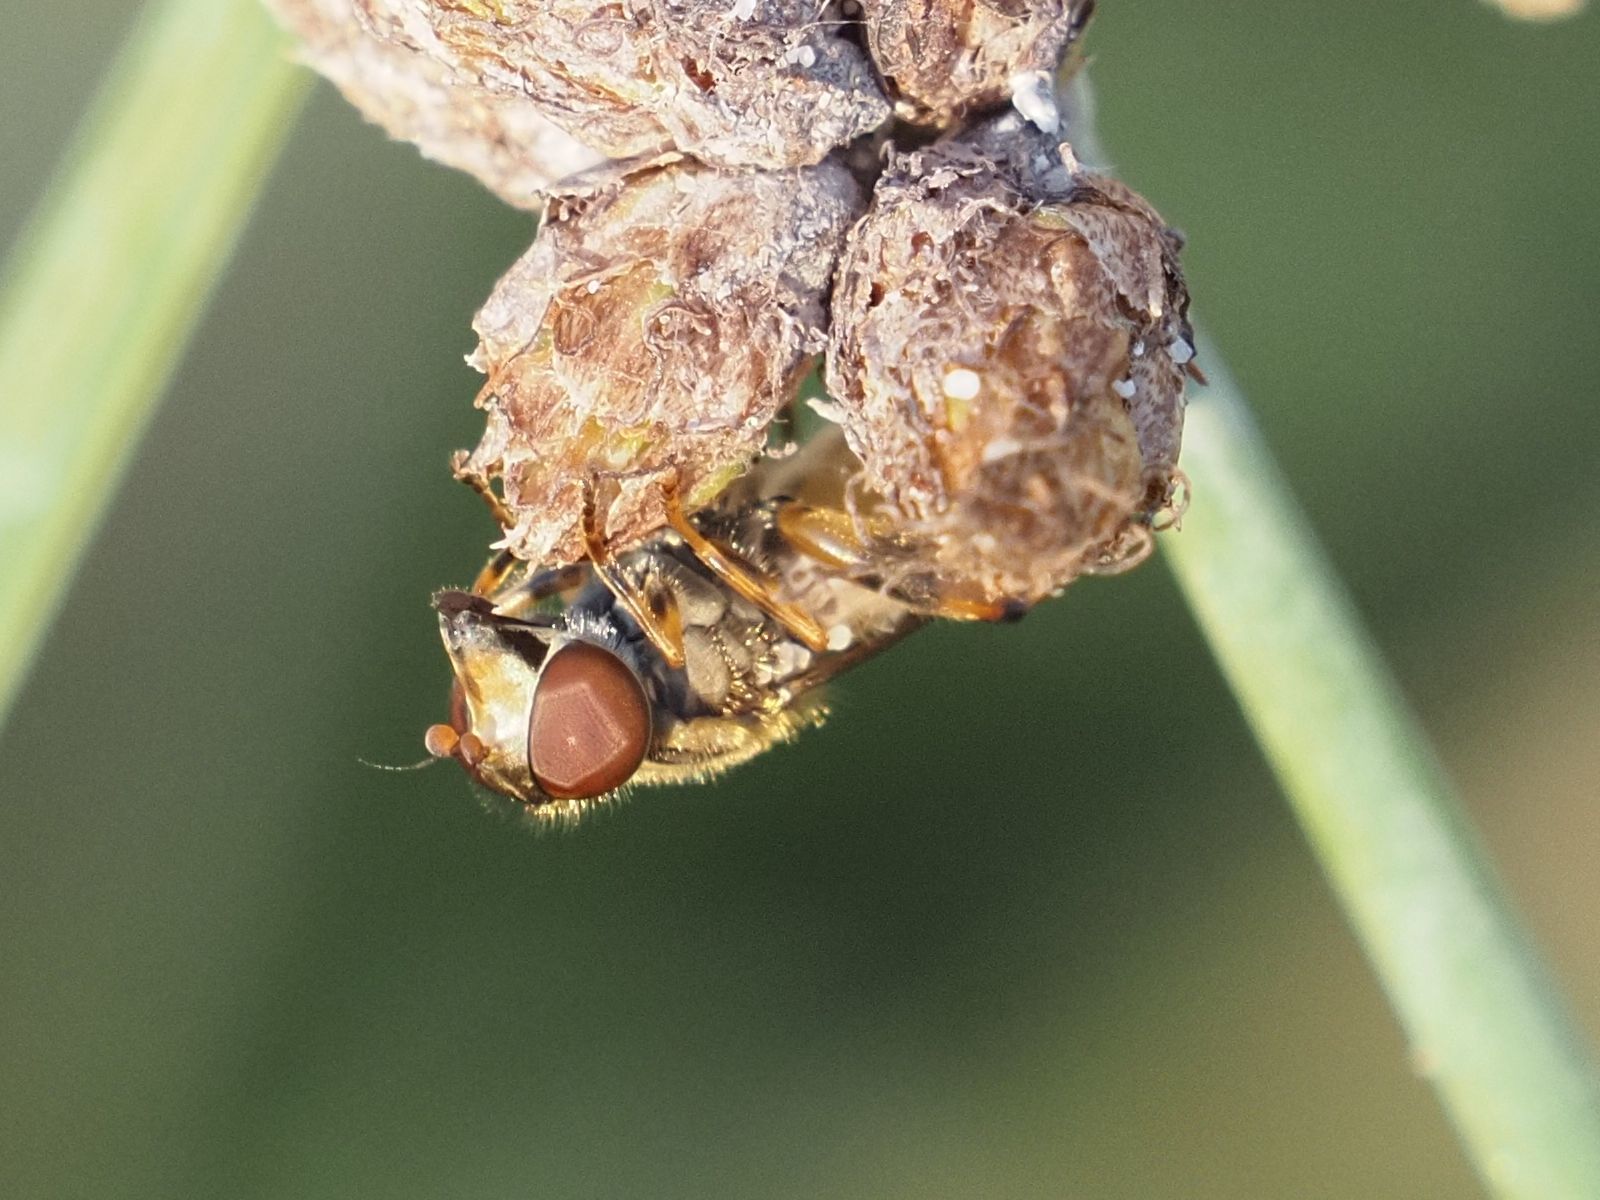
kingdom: Animalia
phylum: Arthropoda
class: Insecta
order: Diptera
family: Syrphidae
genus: Eurimyia
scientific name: Eurimyia lineatus
